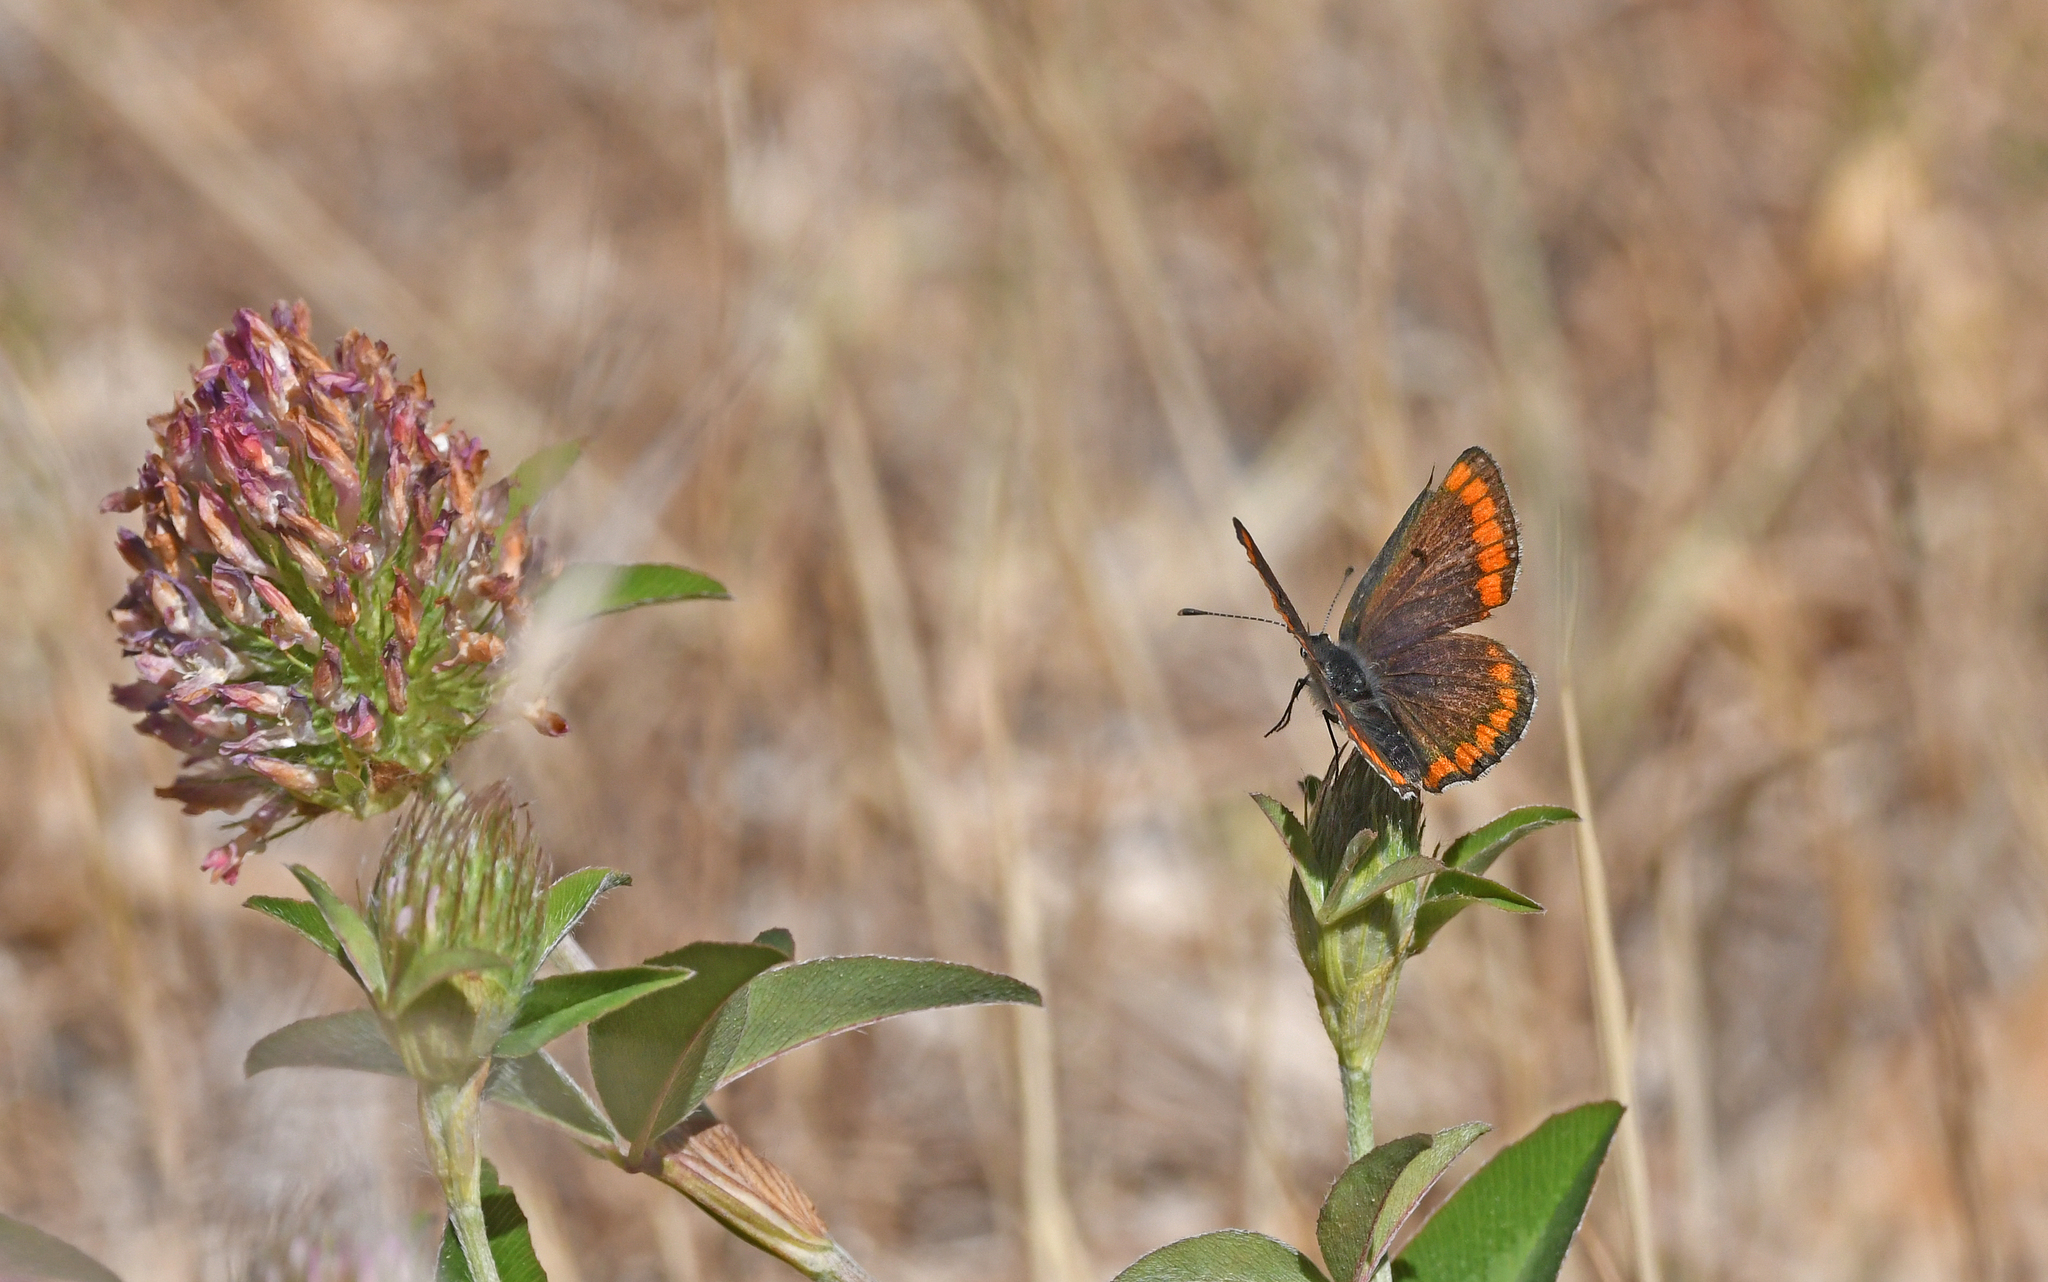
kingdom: Animalia
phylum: Arthropoda
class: Insecta
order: Lepidoptera
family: Lycaenidae
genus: Aricia
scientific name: Aricia agestis
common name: Brown argus
